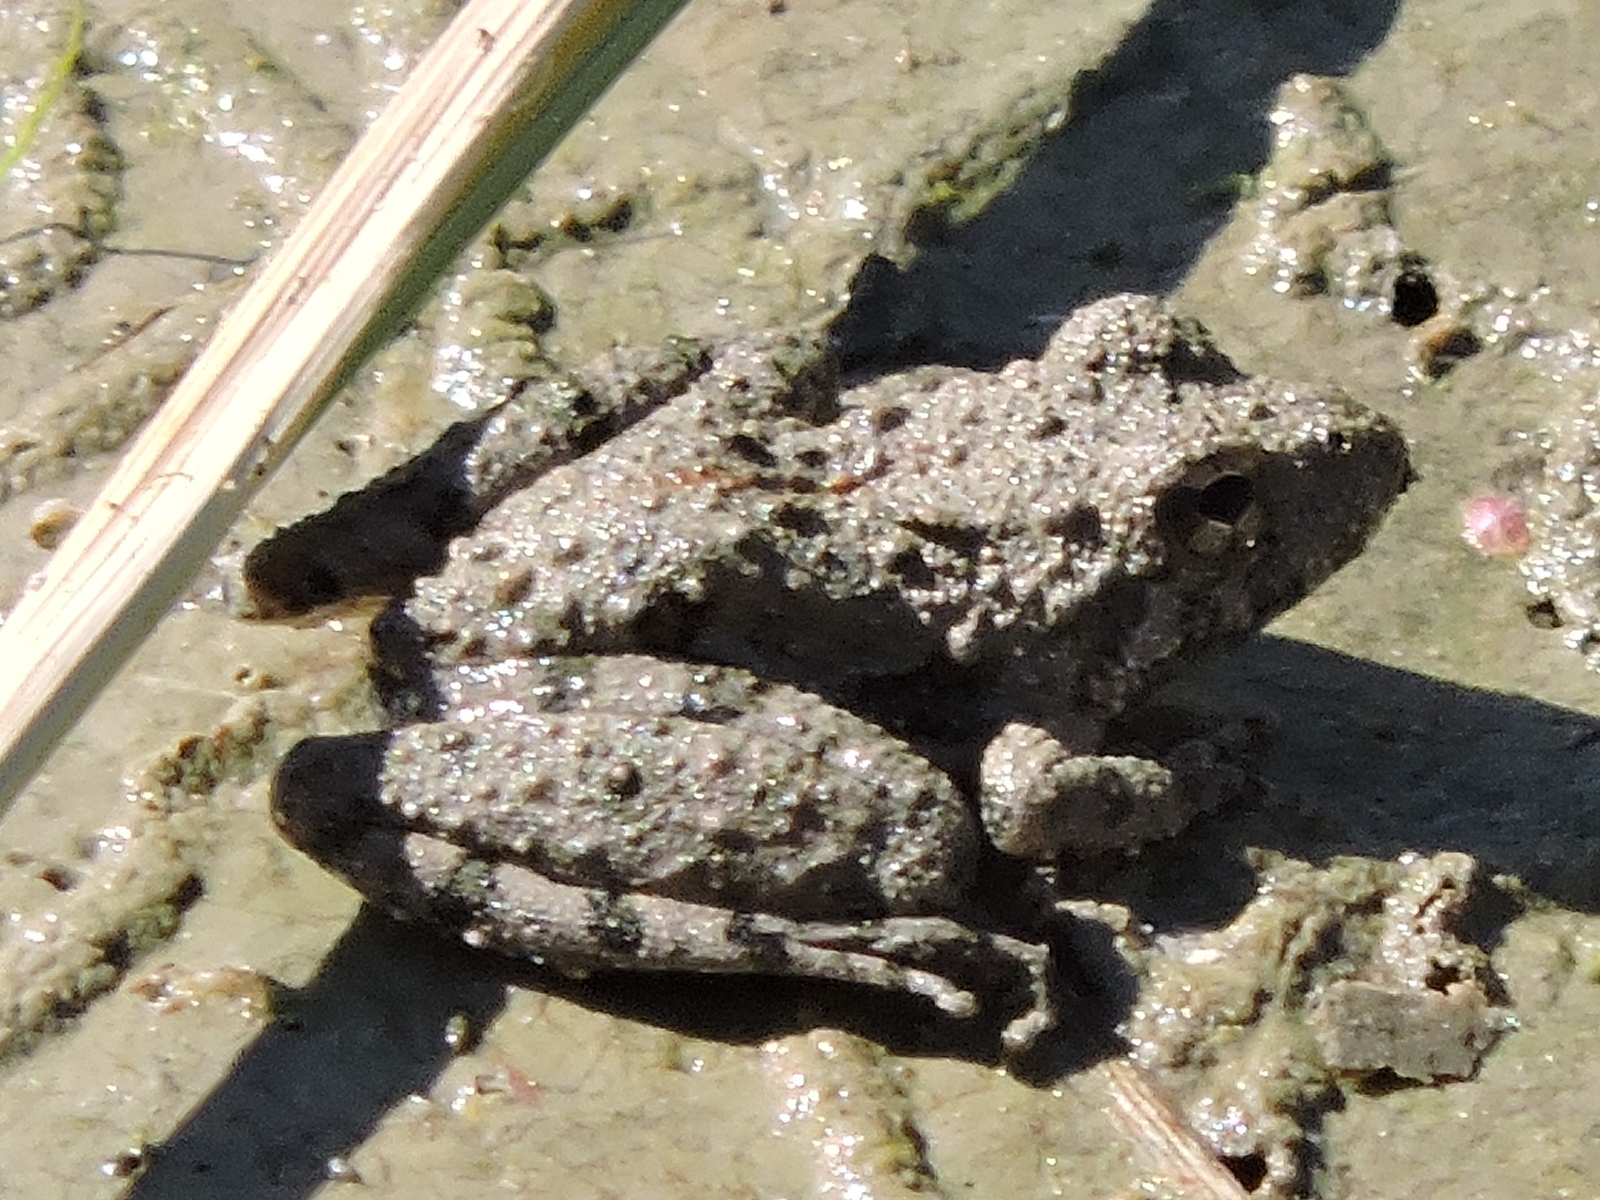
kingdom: Animalia
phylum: Chordata
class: Amphibia
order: Anura
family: Hylidae
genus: Acris
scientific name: Acris blanchardi
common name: Blanchard's cricket frog
